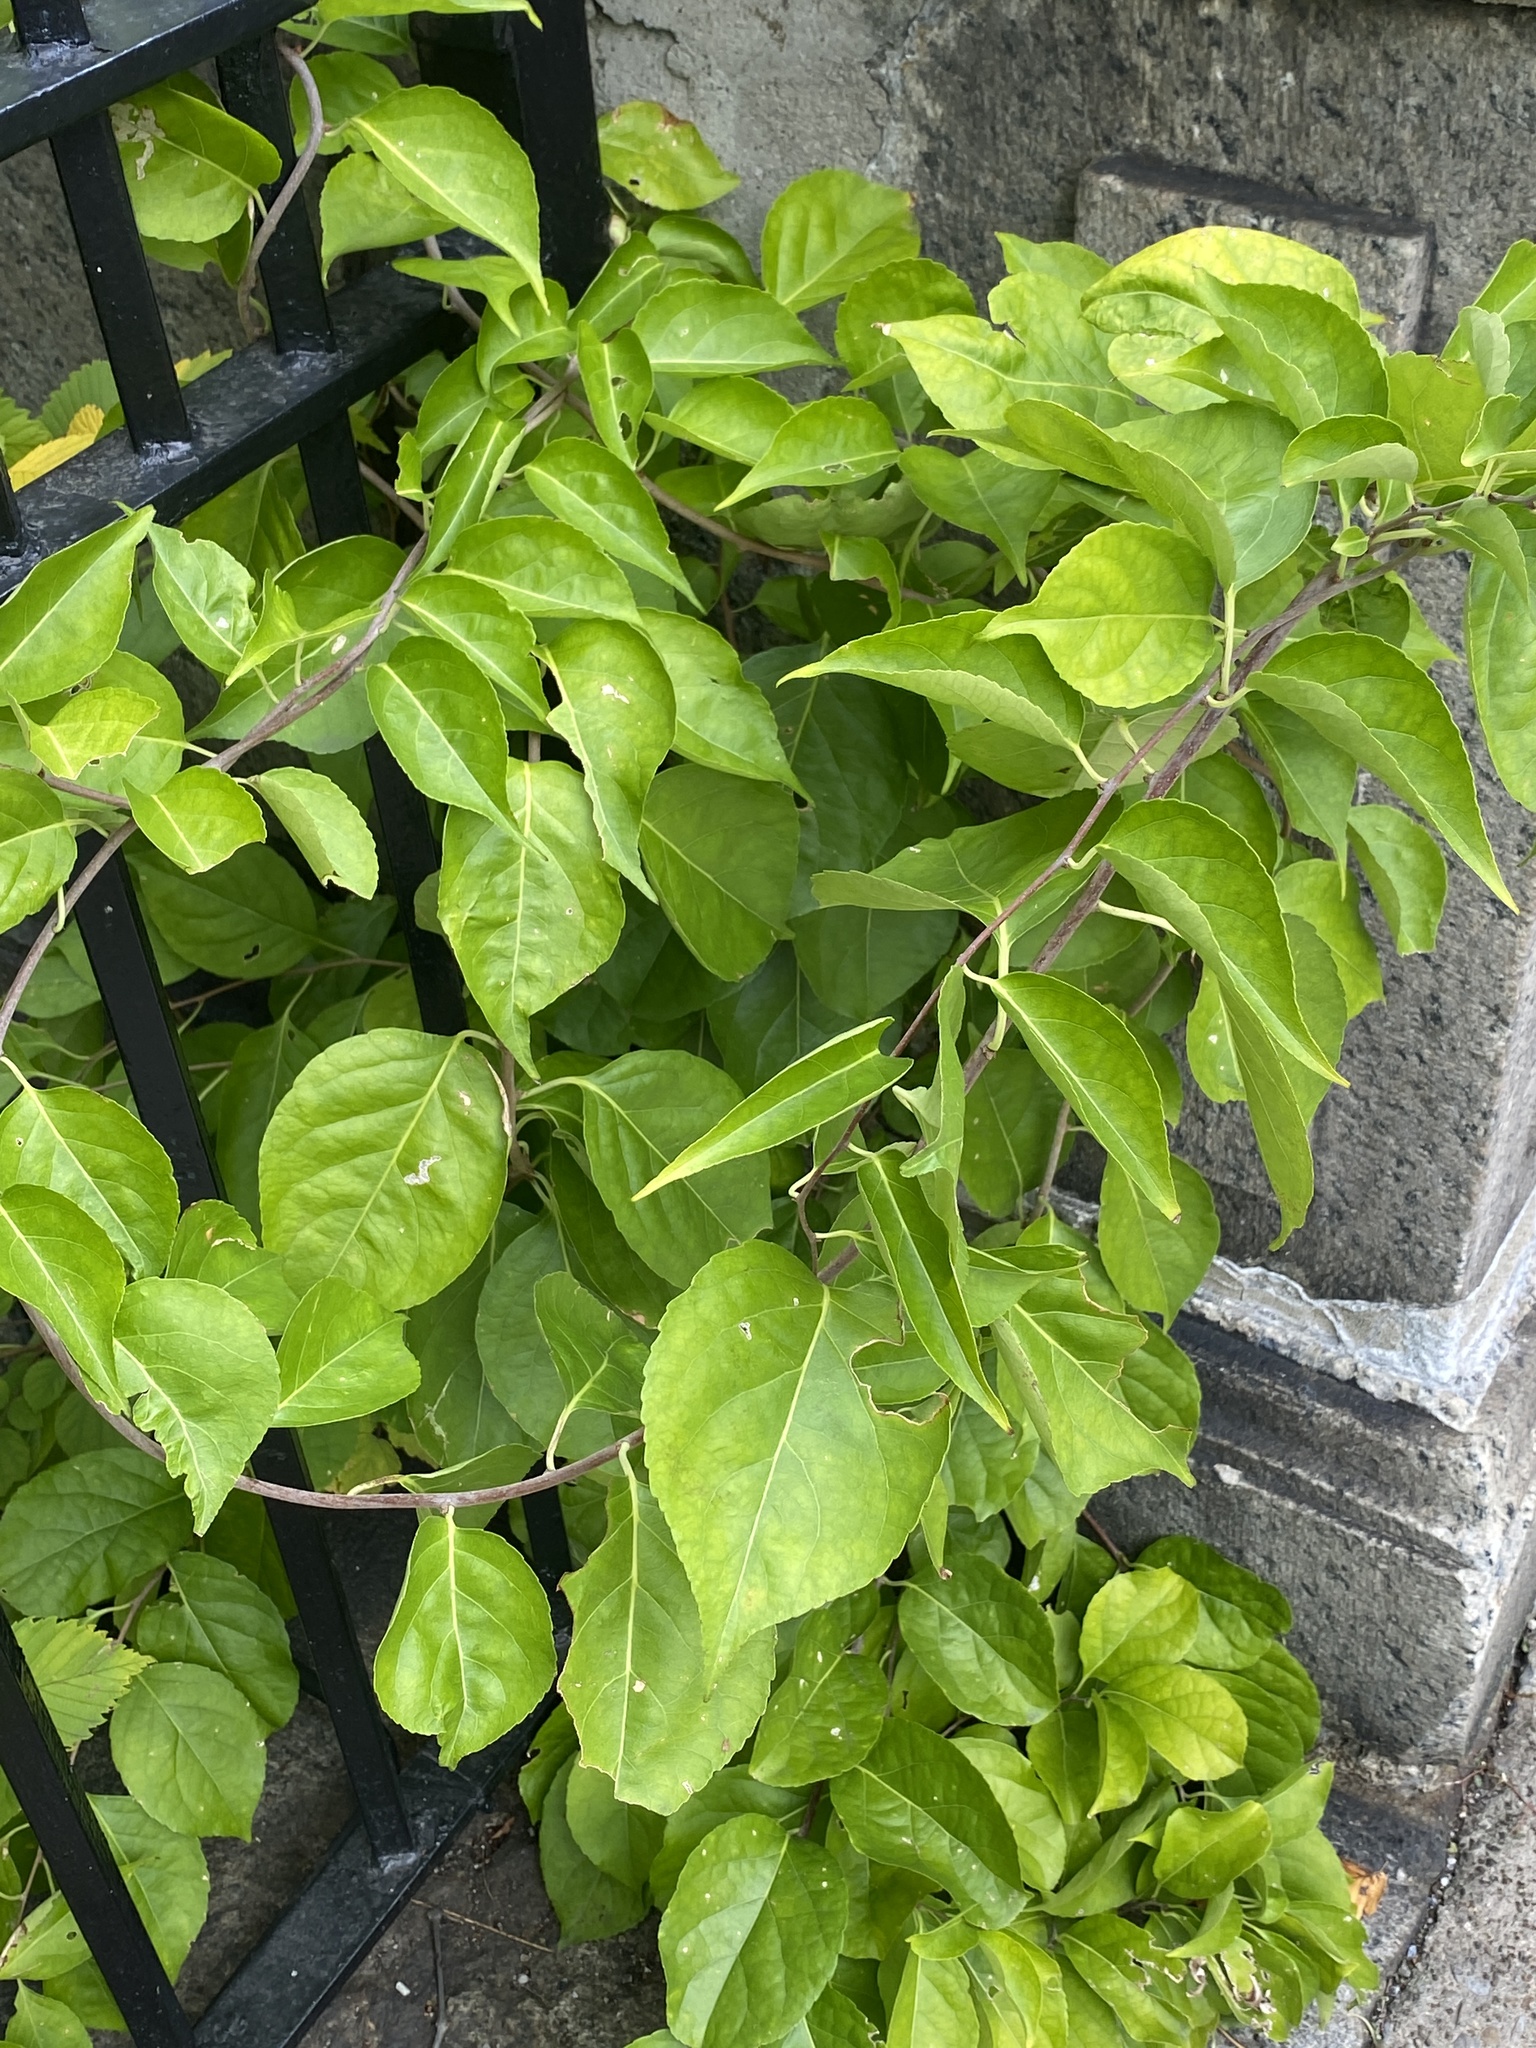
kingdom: Plantae
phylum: Tracheophyta
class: Magnoliopsida
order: Celastrales
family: Celastraceae
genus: Celastrus
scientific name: Celastrus orbiculatus
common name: Oriental bittersweet
